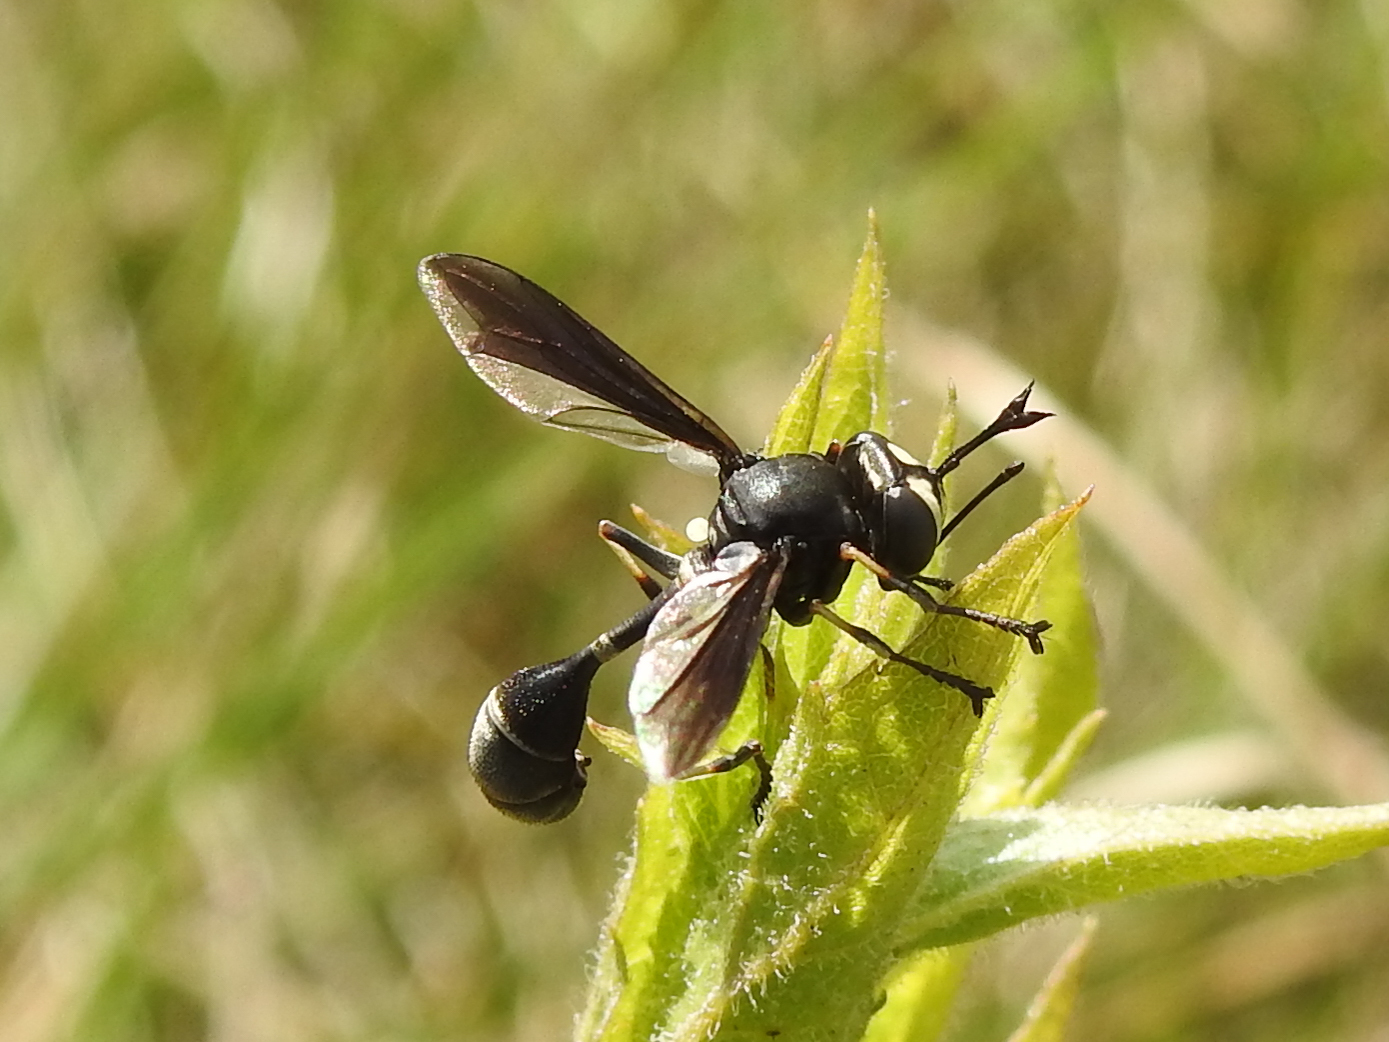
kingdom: Animalia
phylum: Arthropoda
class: Insecta
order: Diptera
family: Conopidae
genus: Physocephala
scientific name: Physocephala tibialis
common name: Common eastern physocephala
